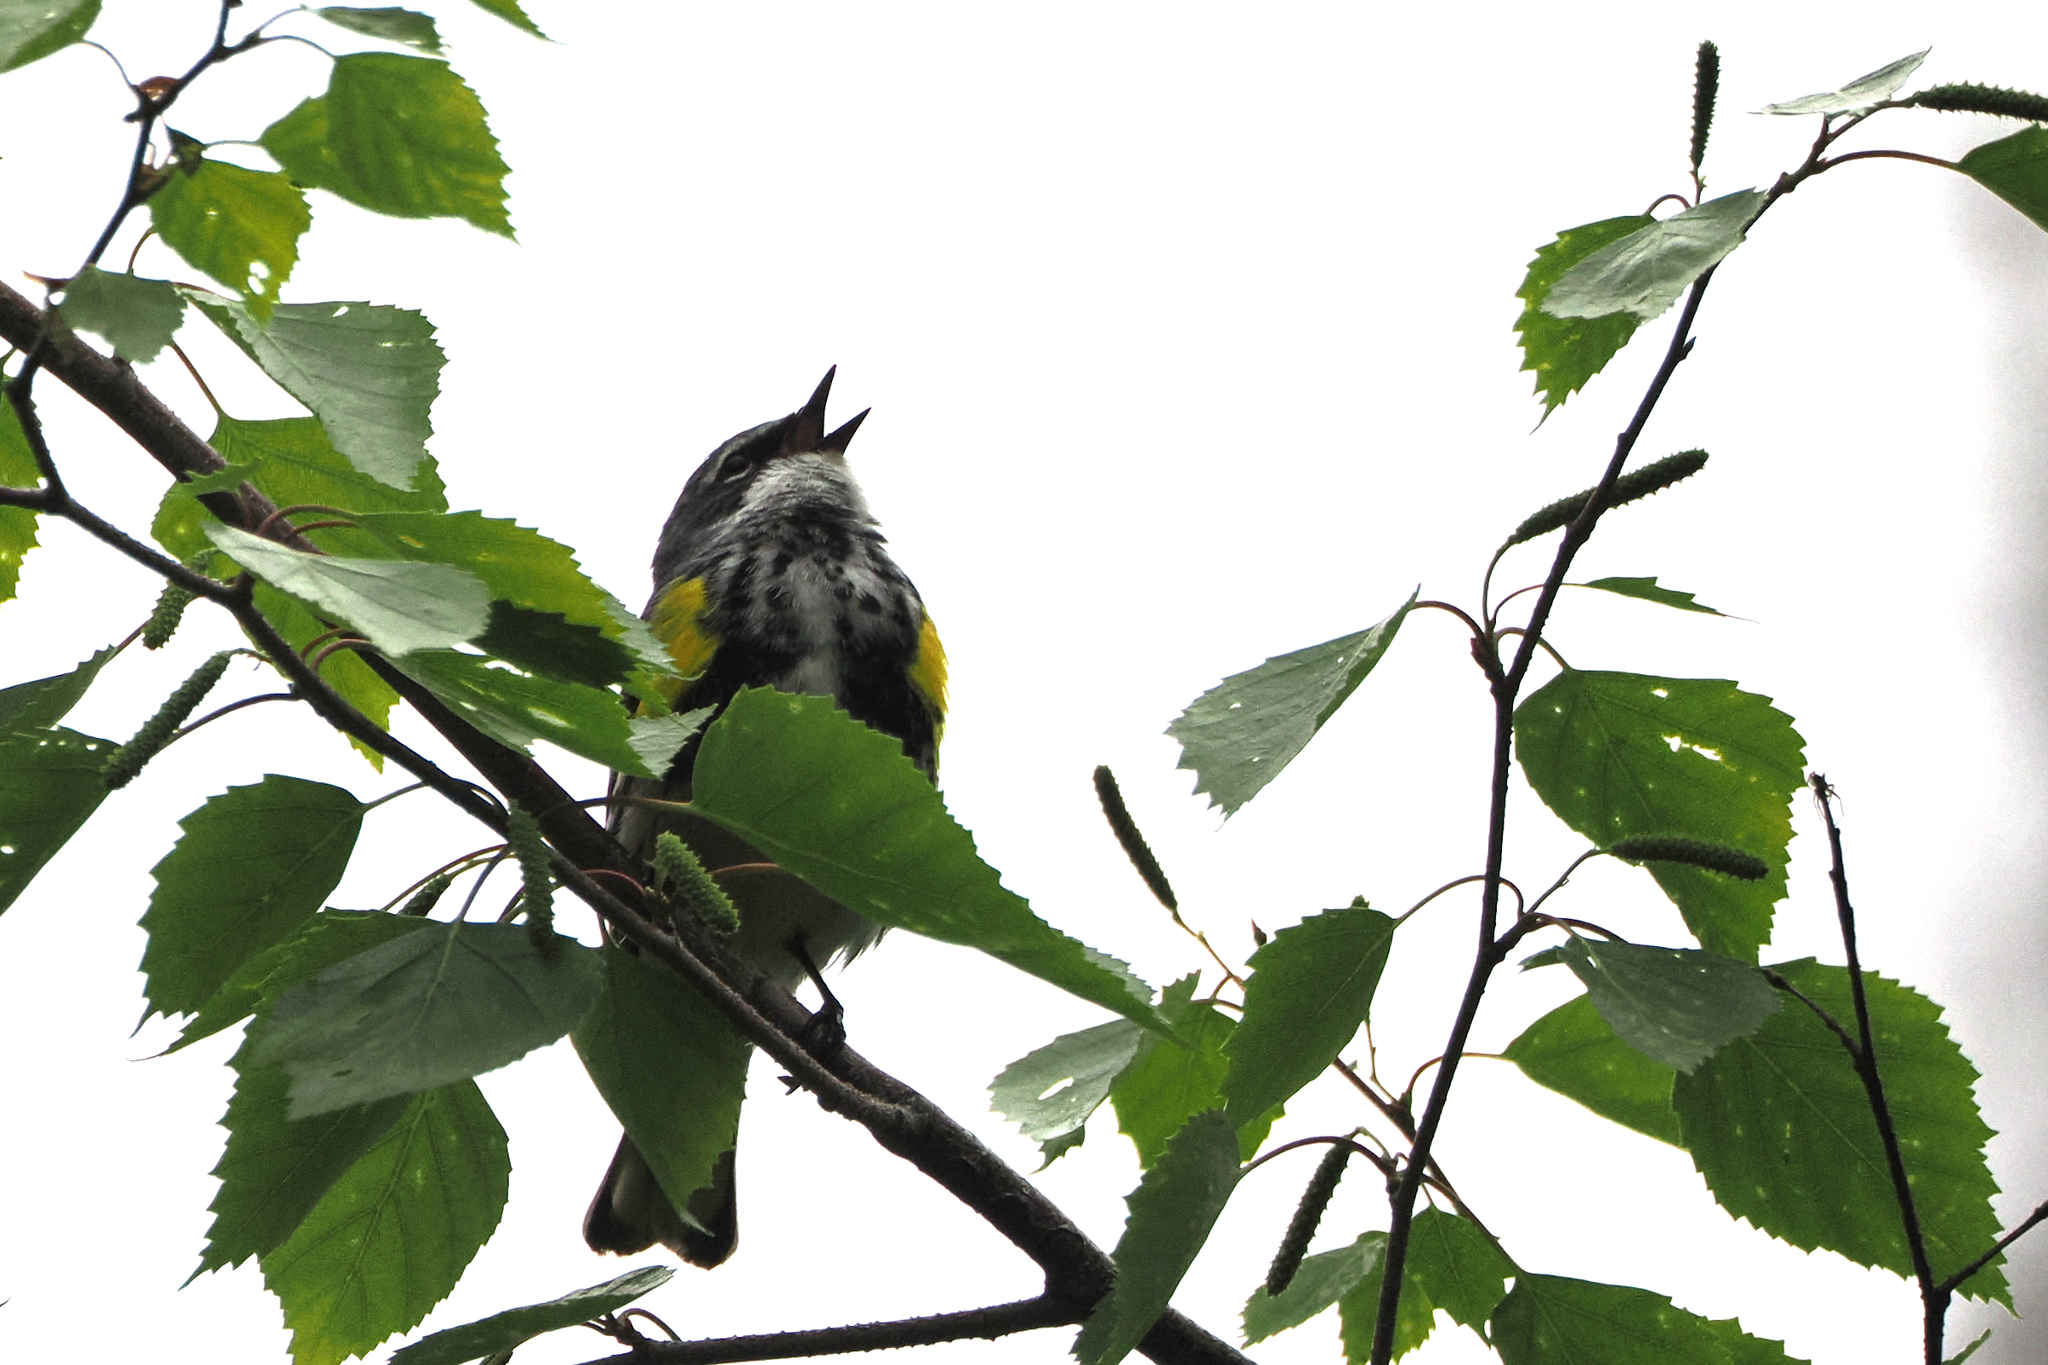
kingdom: Animalia
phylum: Chordata
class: Aves
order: Passeriformes
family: Parulidae
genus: Setophaga
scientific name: Setophaga coronata
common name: Myrtle warbler
